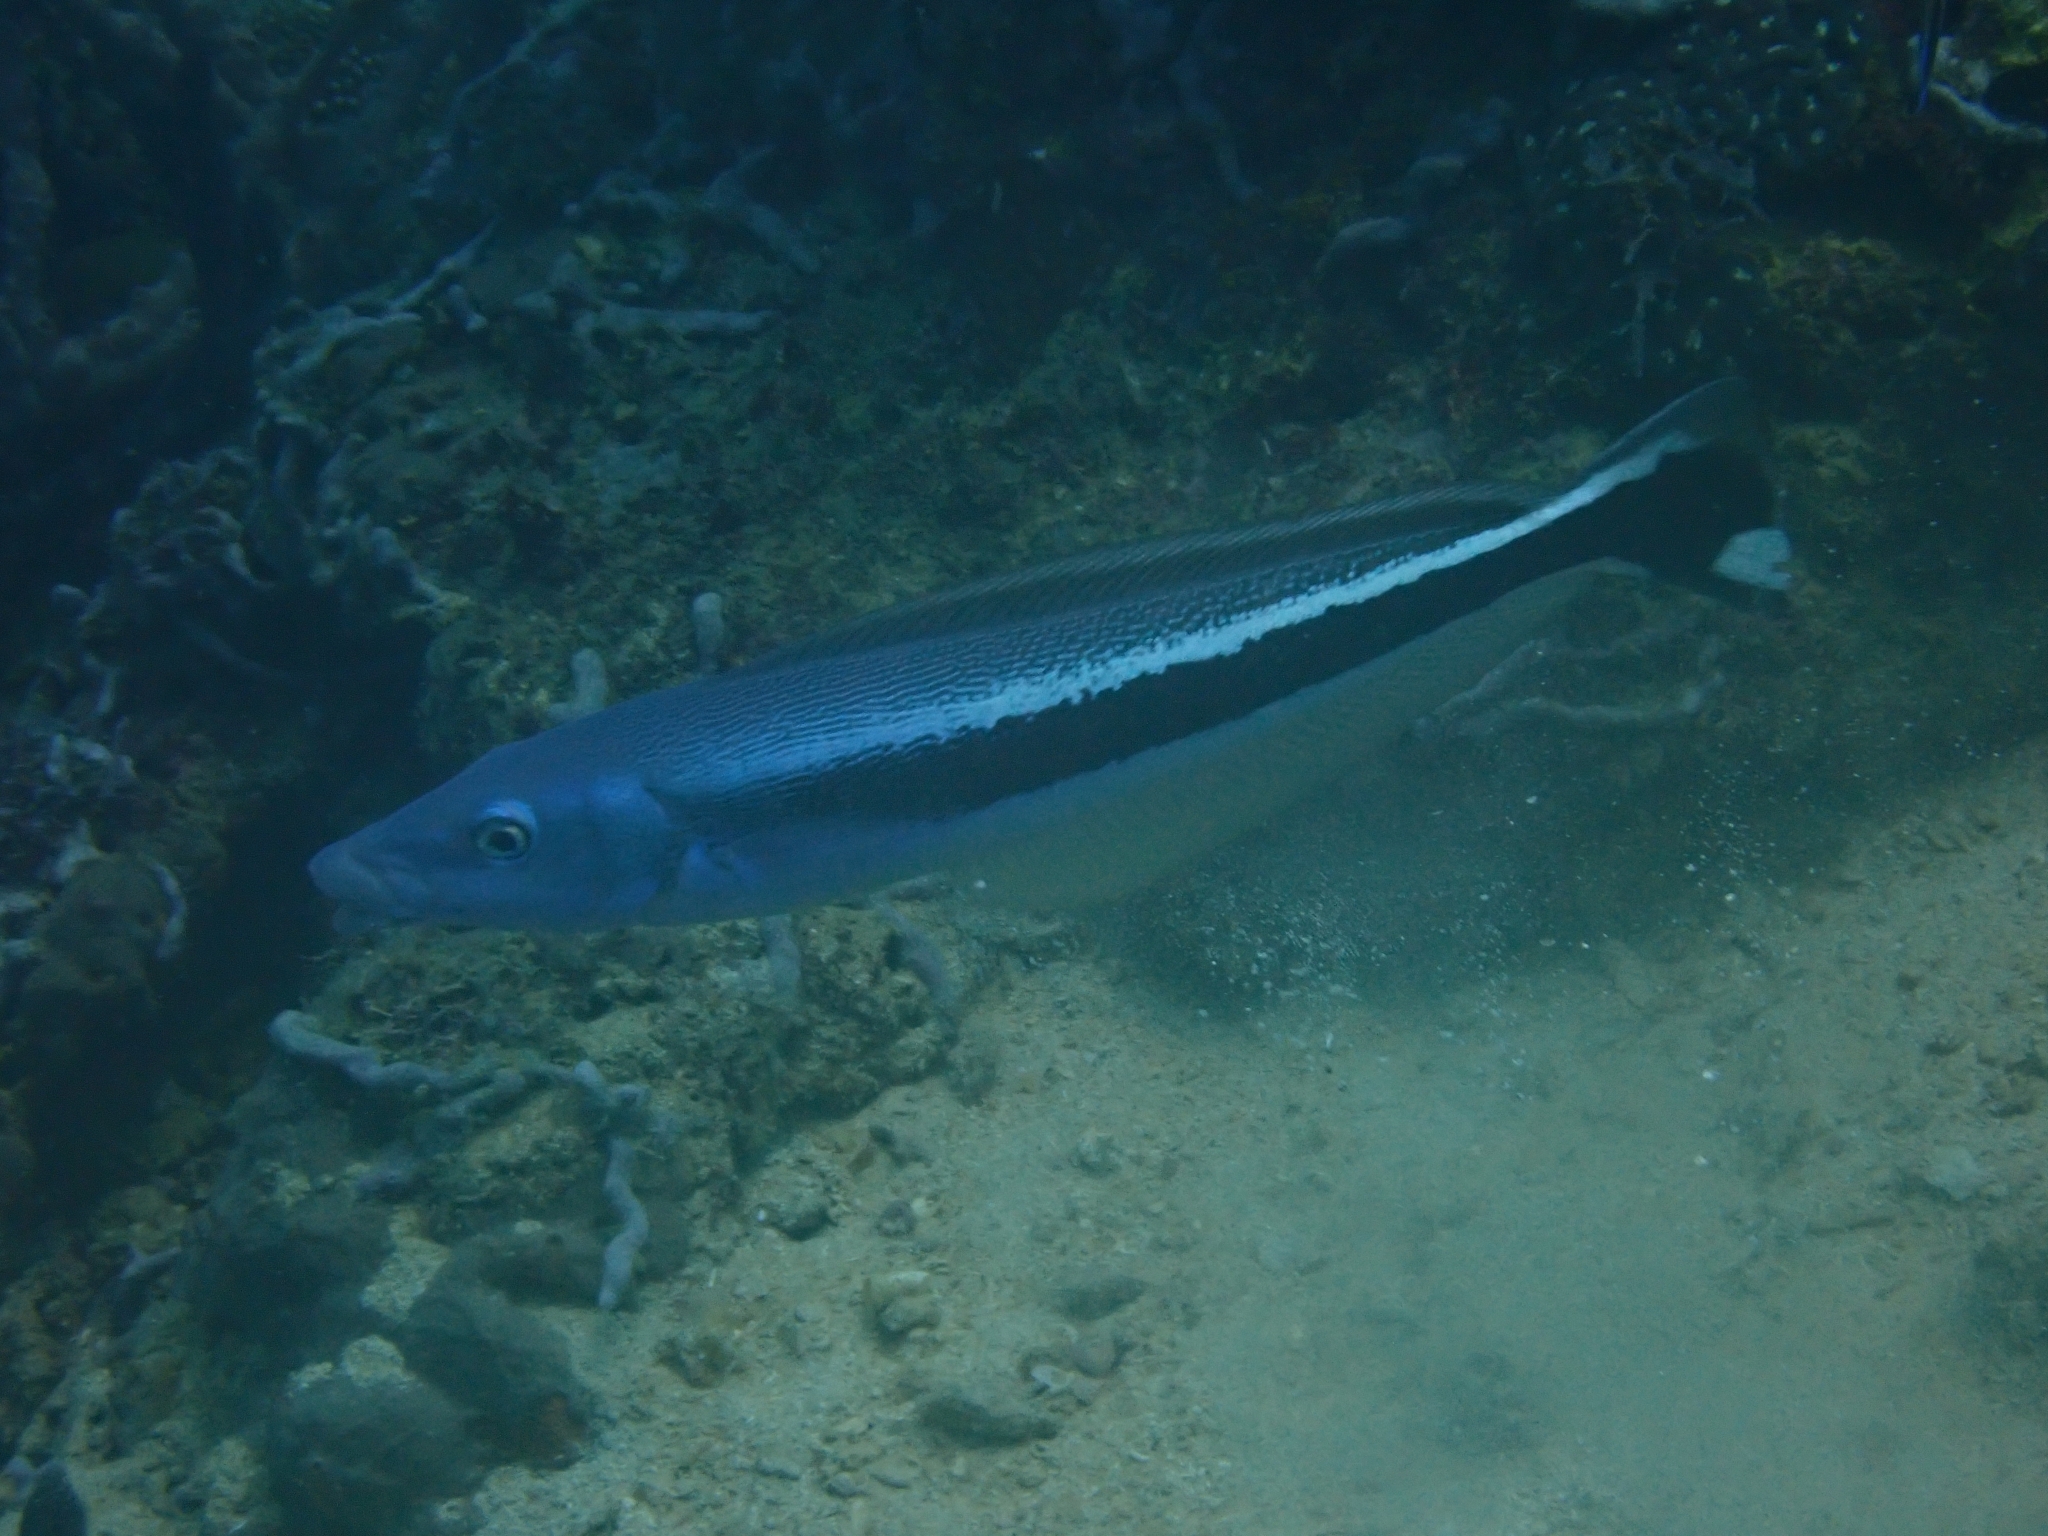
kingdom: Animalia
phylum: Chordata
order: Perciformes
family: Malacanthidae
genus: Malacanthus
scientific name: Malacanthus latovittatus
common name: Blue blanquillo
